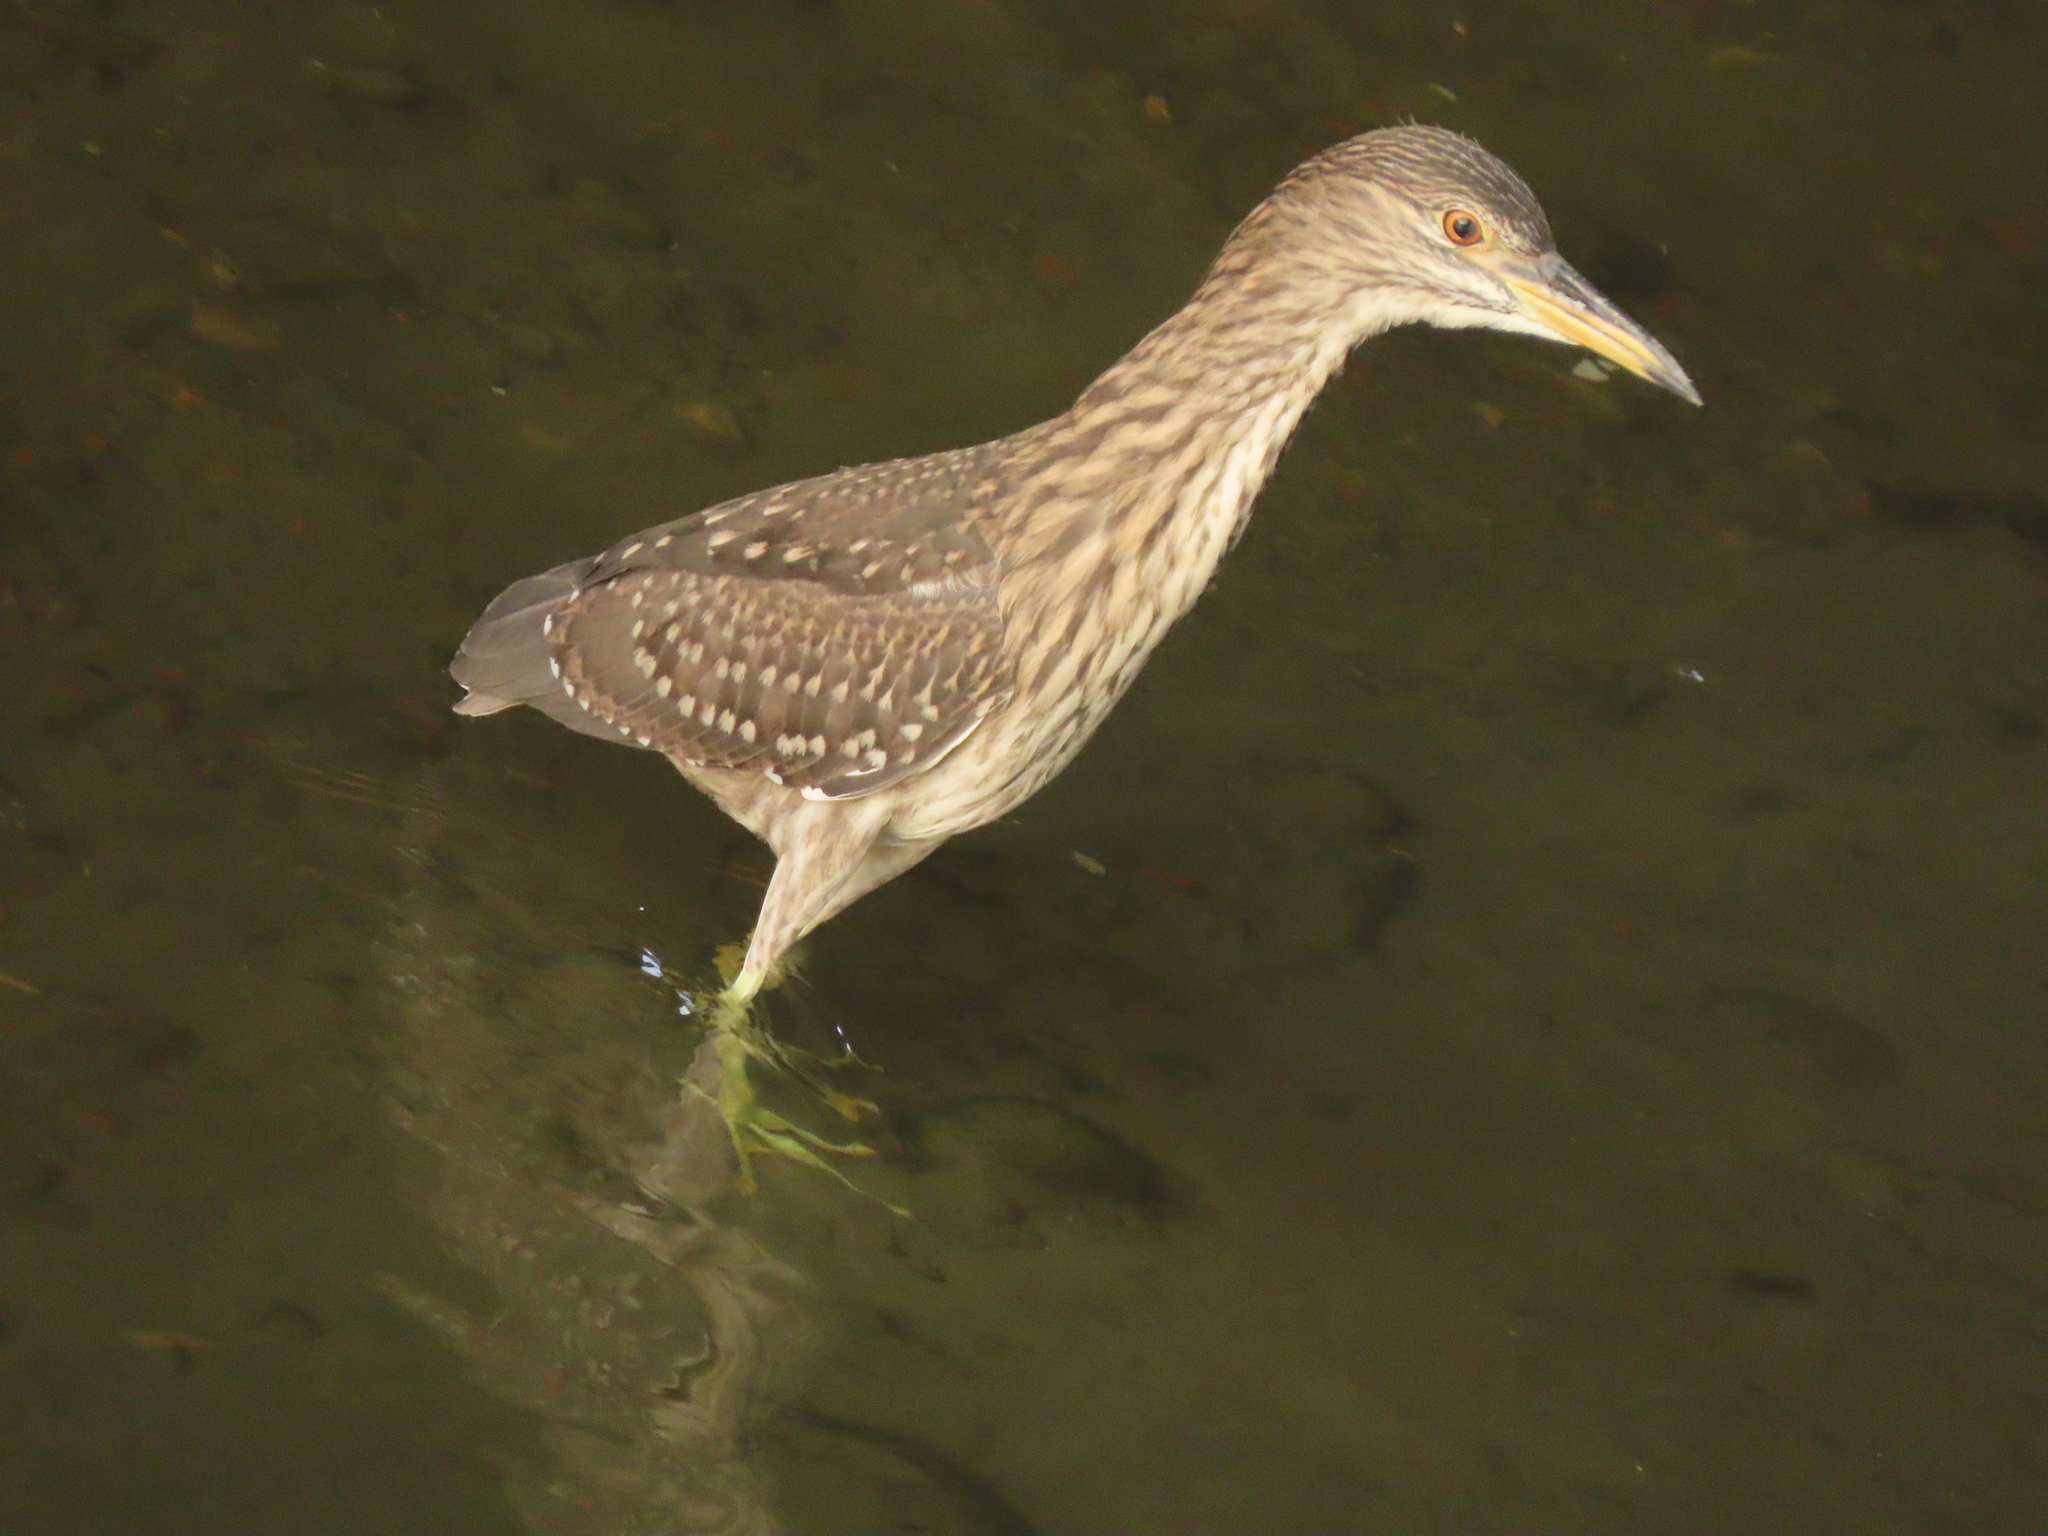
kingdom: Animalia
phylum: Chordata
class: Aves
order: Pelecaniformes
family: Ardeidae
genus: Nycticorax
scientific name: Nycticorax nycticorax
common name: Black-crowned night heron
